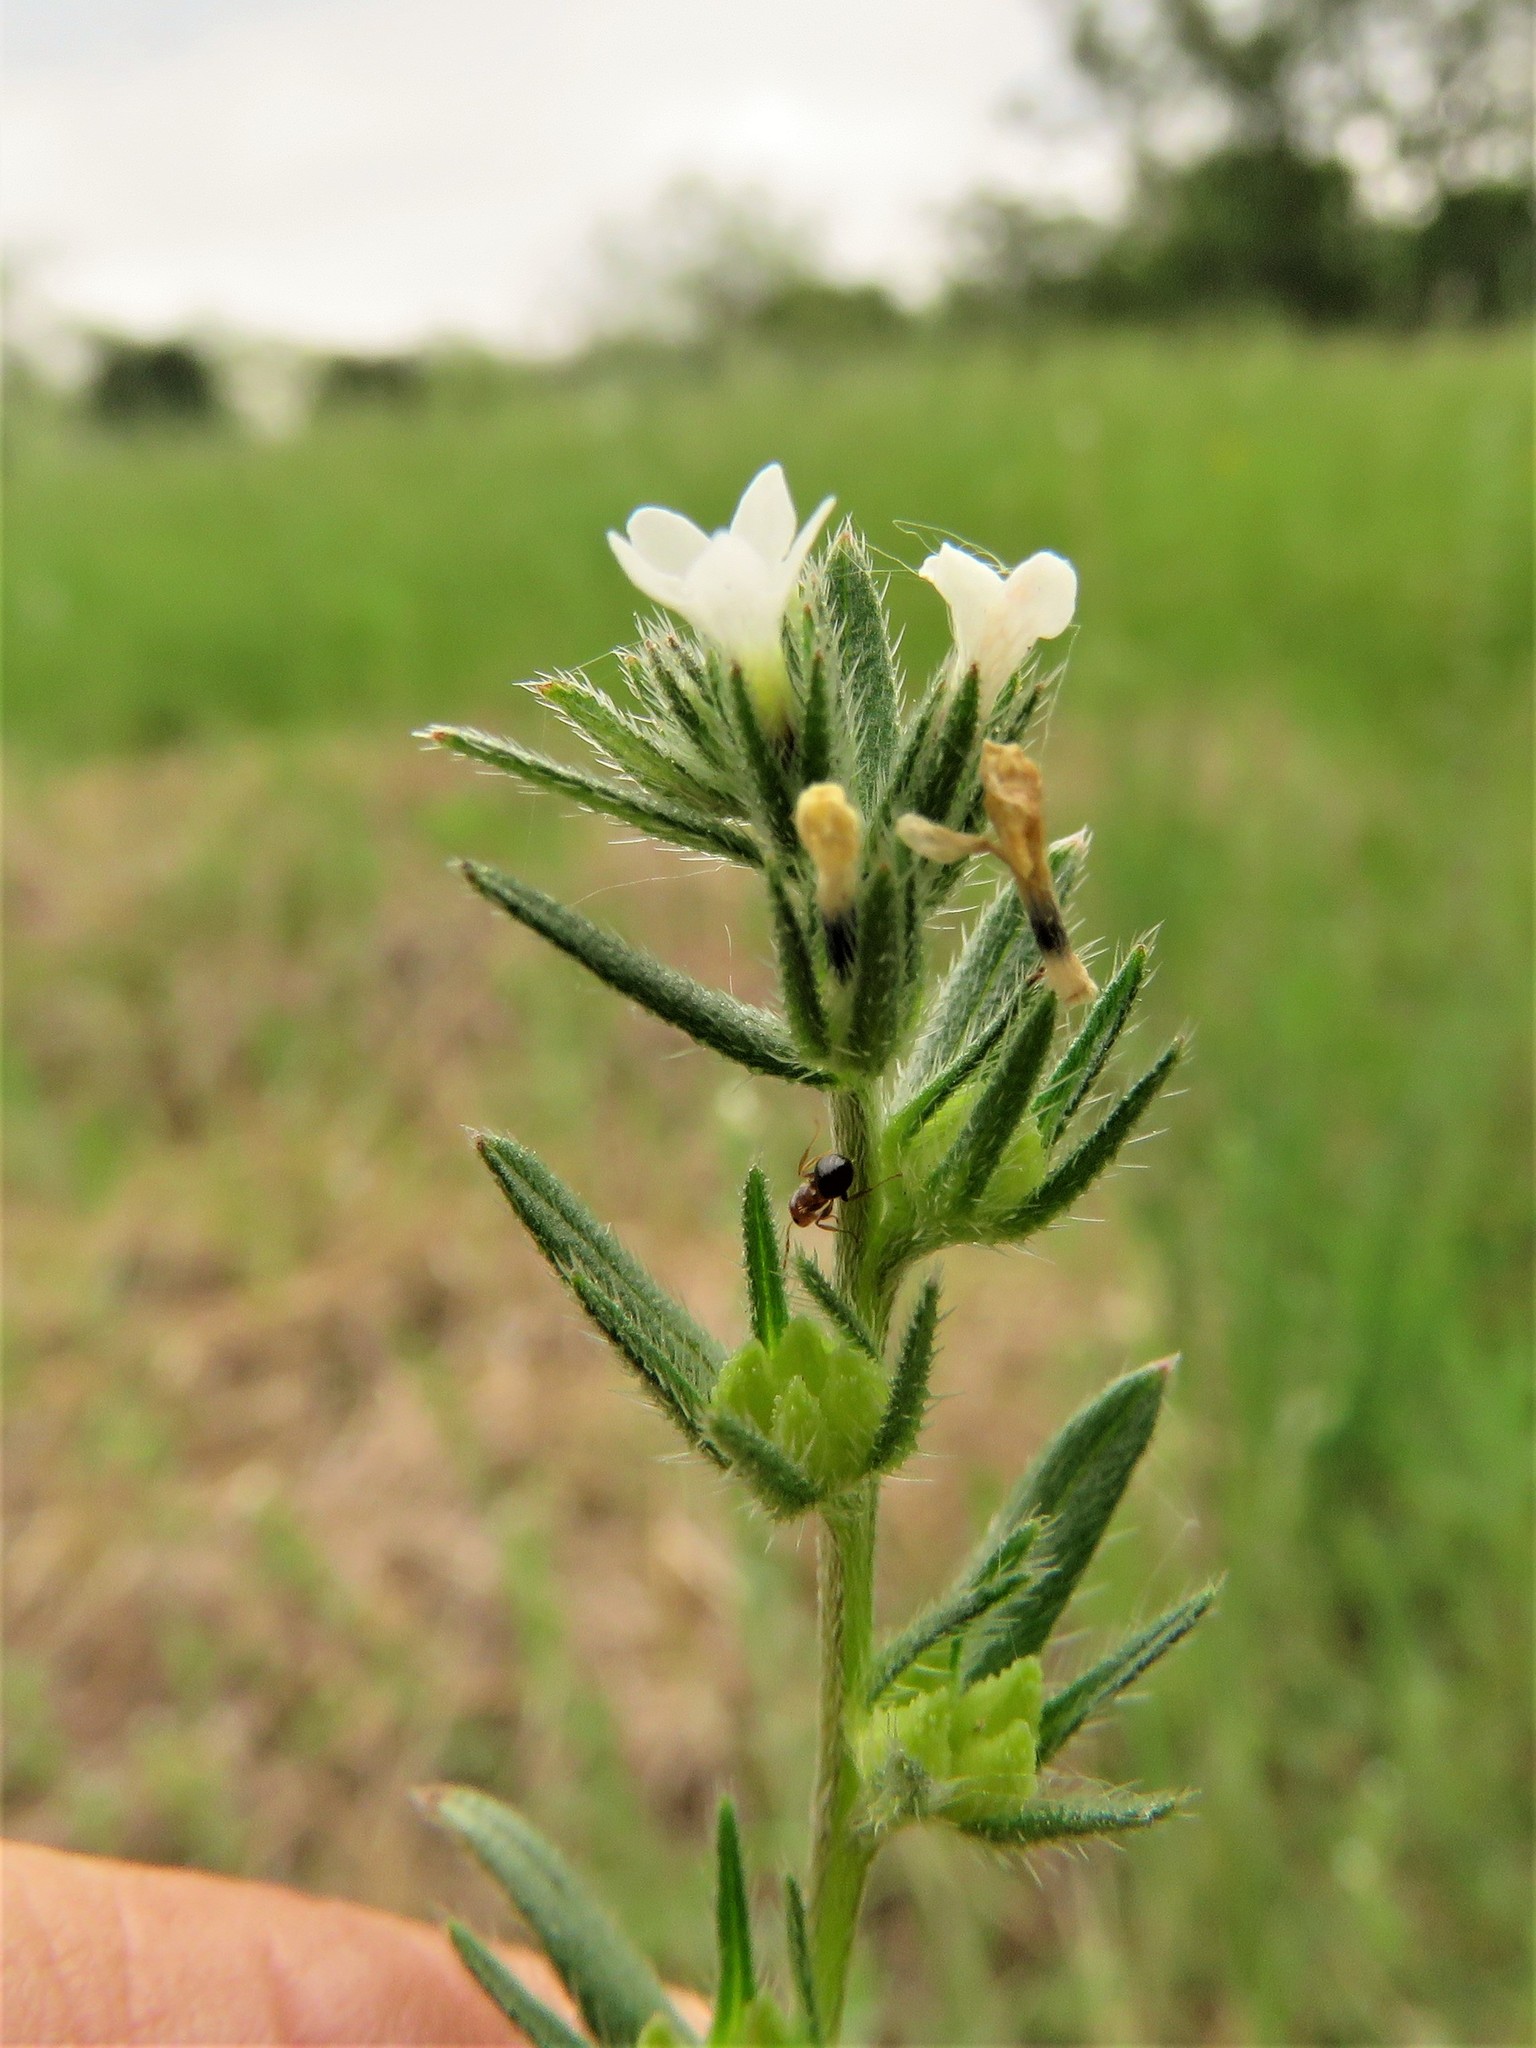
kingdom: Plantae
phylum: Tracheophyta
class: Magnoliopsida
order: Boraginales
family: Boraginaceae
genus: Buglossoides
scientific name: Buglossoides arvensis
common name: Corn gromwell
